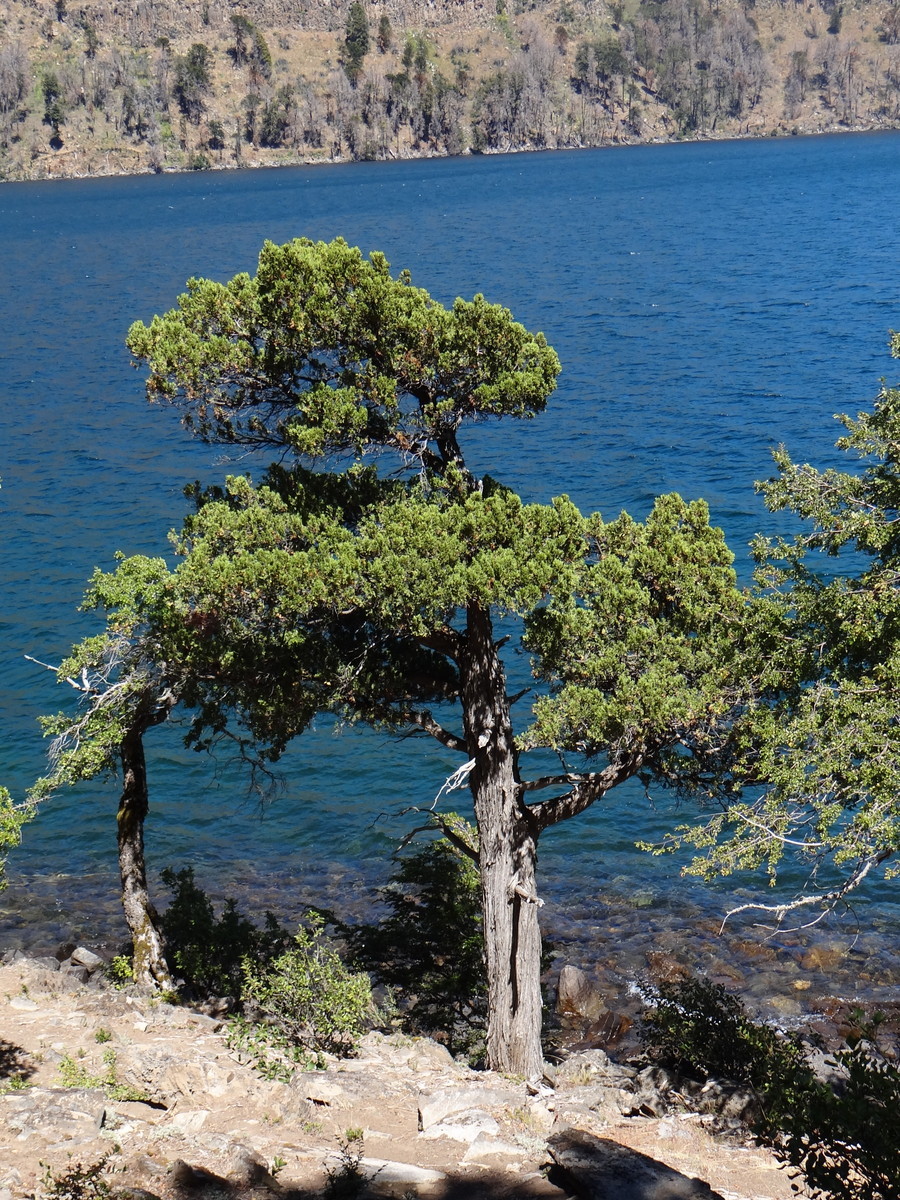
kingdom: Plantae
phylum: Tracheophyta
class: Pinopsida
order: Pinales
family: Cupressaceae
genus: Austrocedrus
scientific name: Austrocedrus chilensis
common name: Chilean incense-cedar
